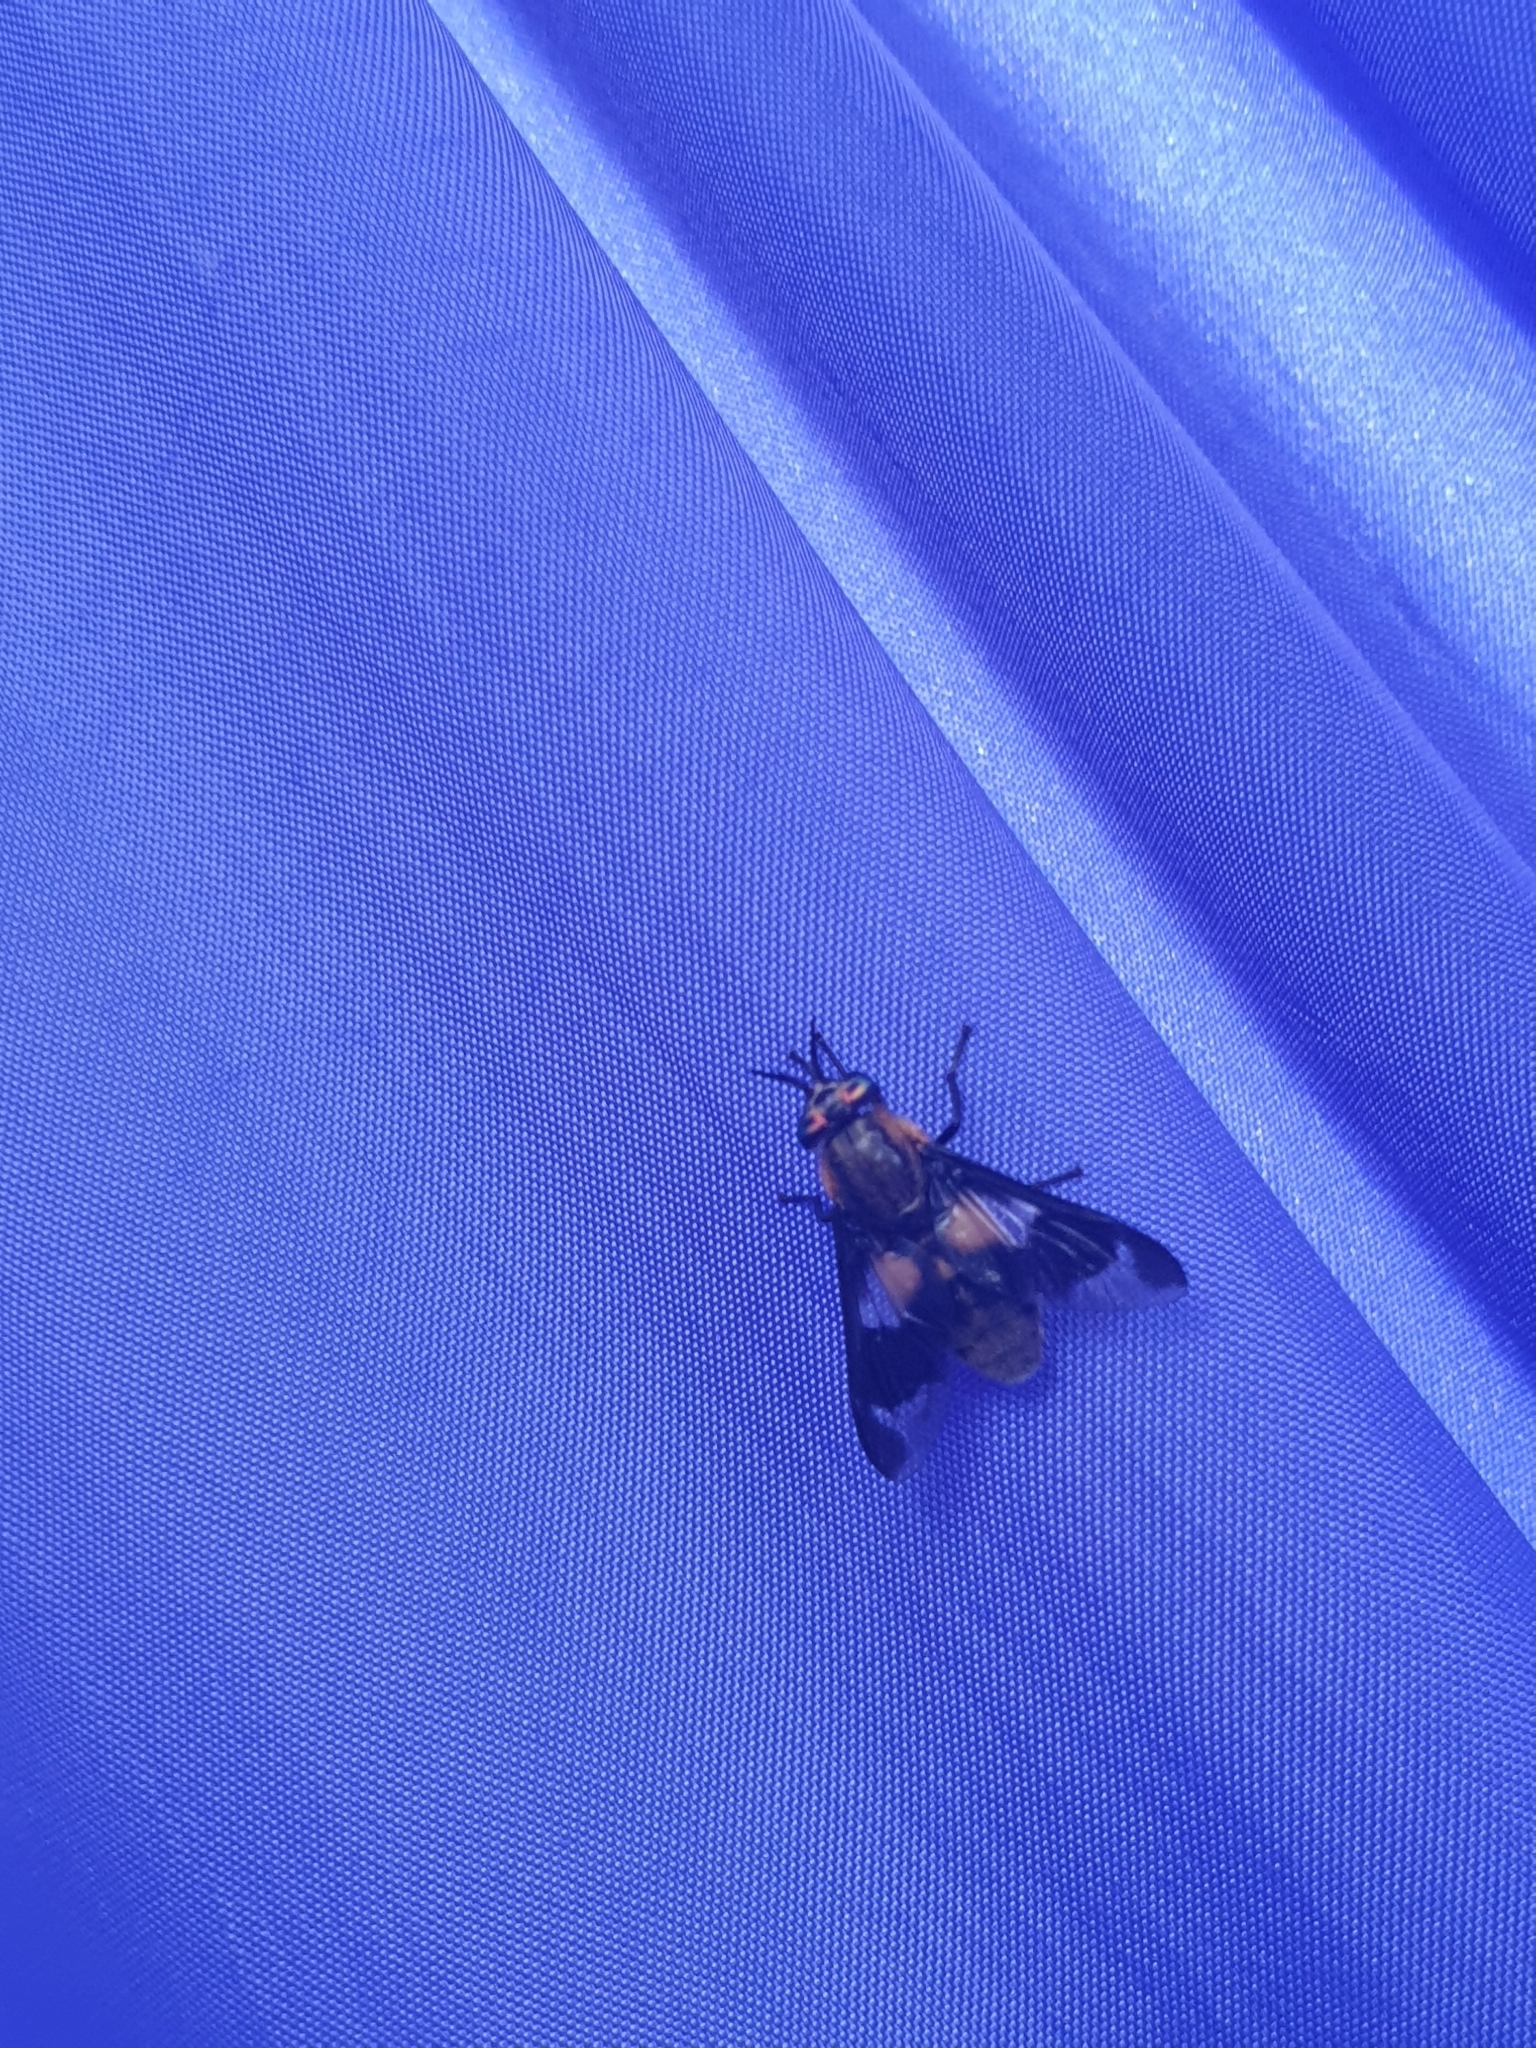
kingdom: Animalia
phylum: Arthropoda
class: Insecta
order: Diptera
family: Tabanidae
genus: Chrysops
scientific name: Chrysops caecutiens
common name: Splayed deerfly
